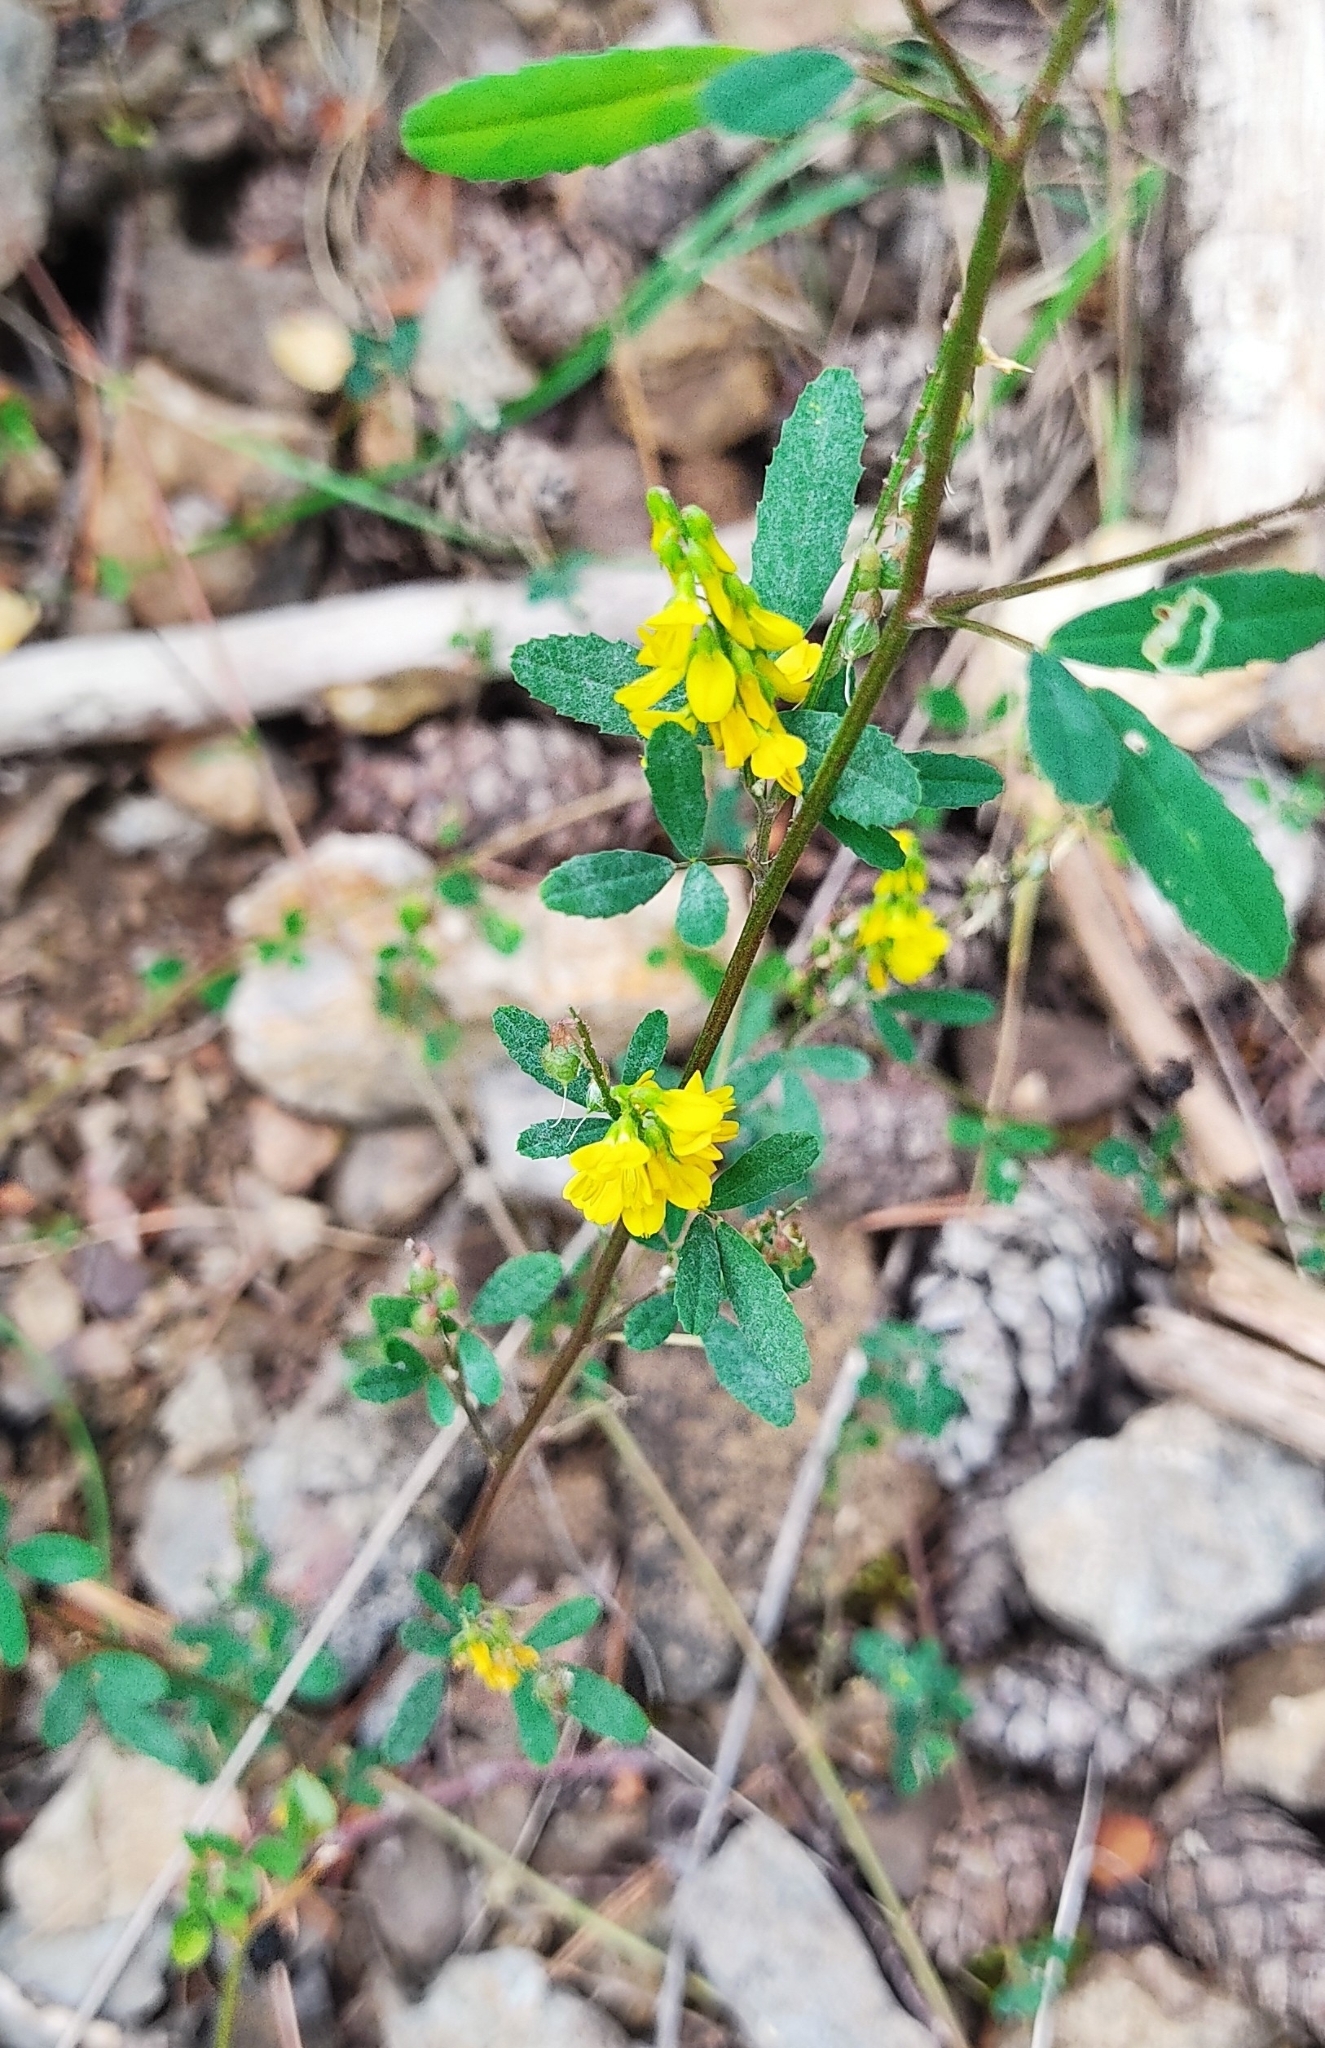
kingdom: Plantae
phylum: Tracheophyta
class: Magnoliopsida
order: Fabales
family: Fabaceae
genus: Melilotus
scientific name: Melilotus officinalis
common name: Sweetclover
